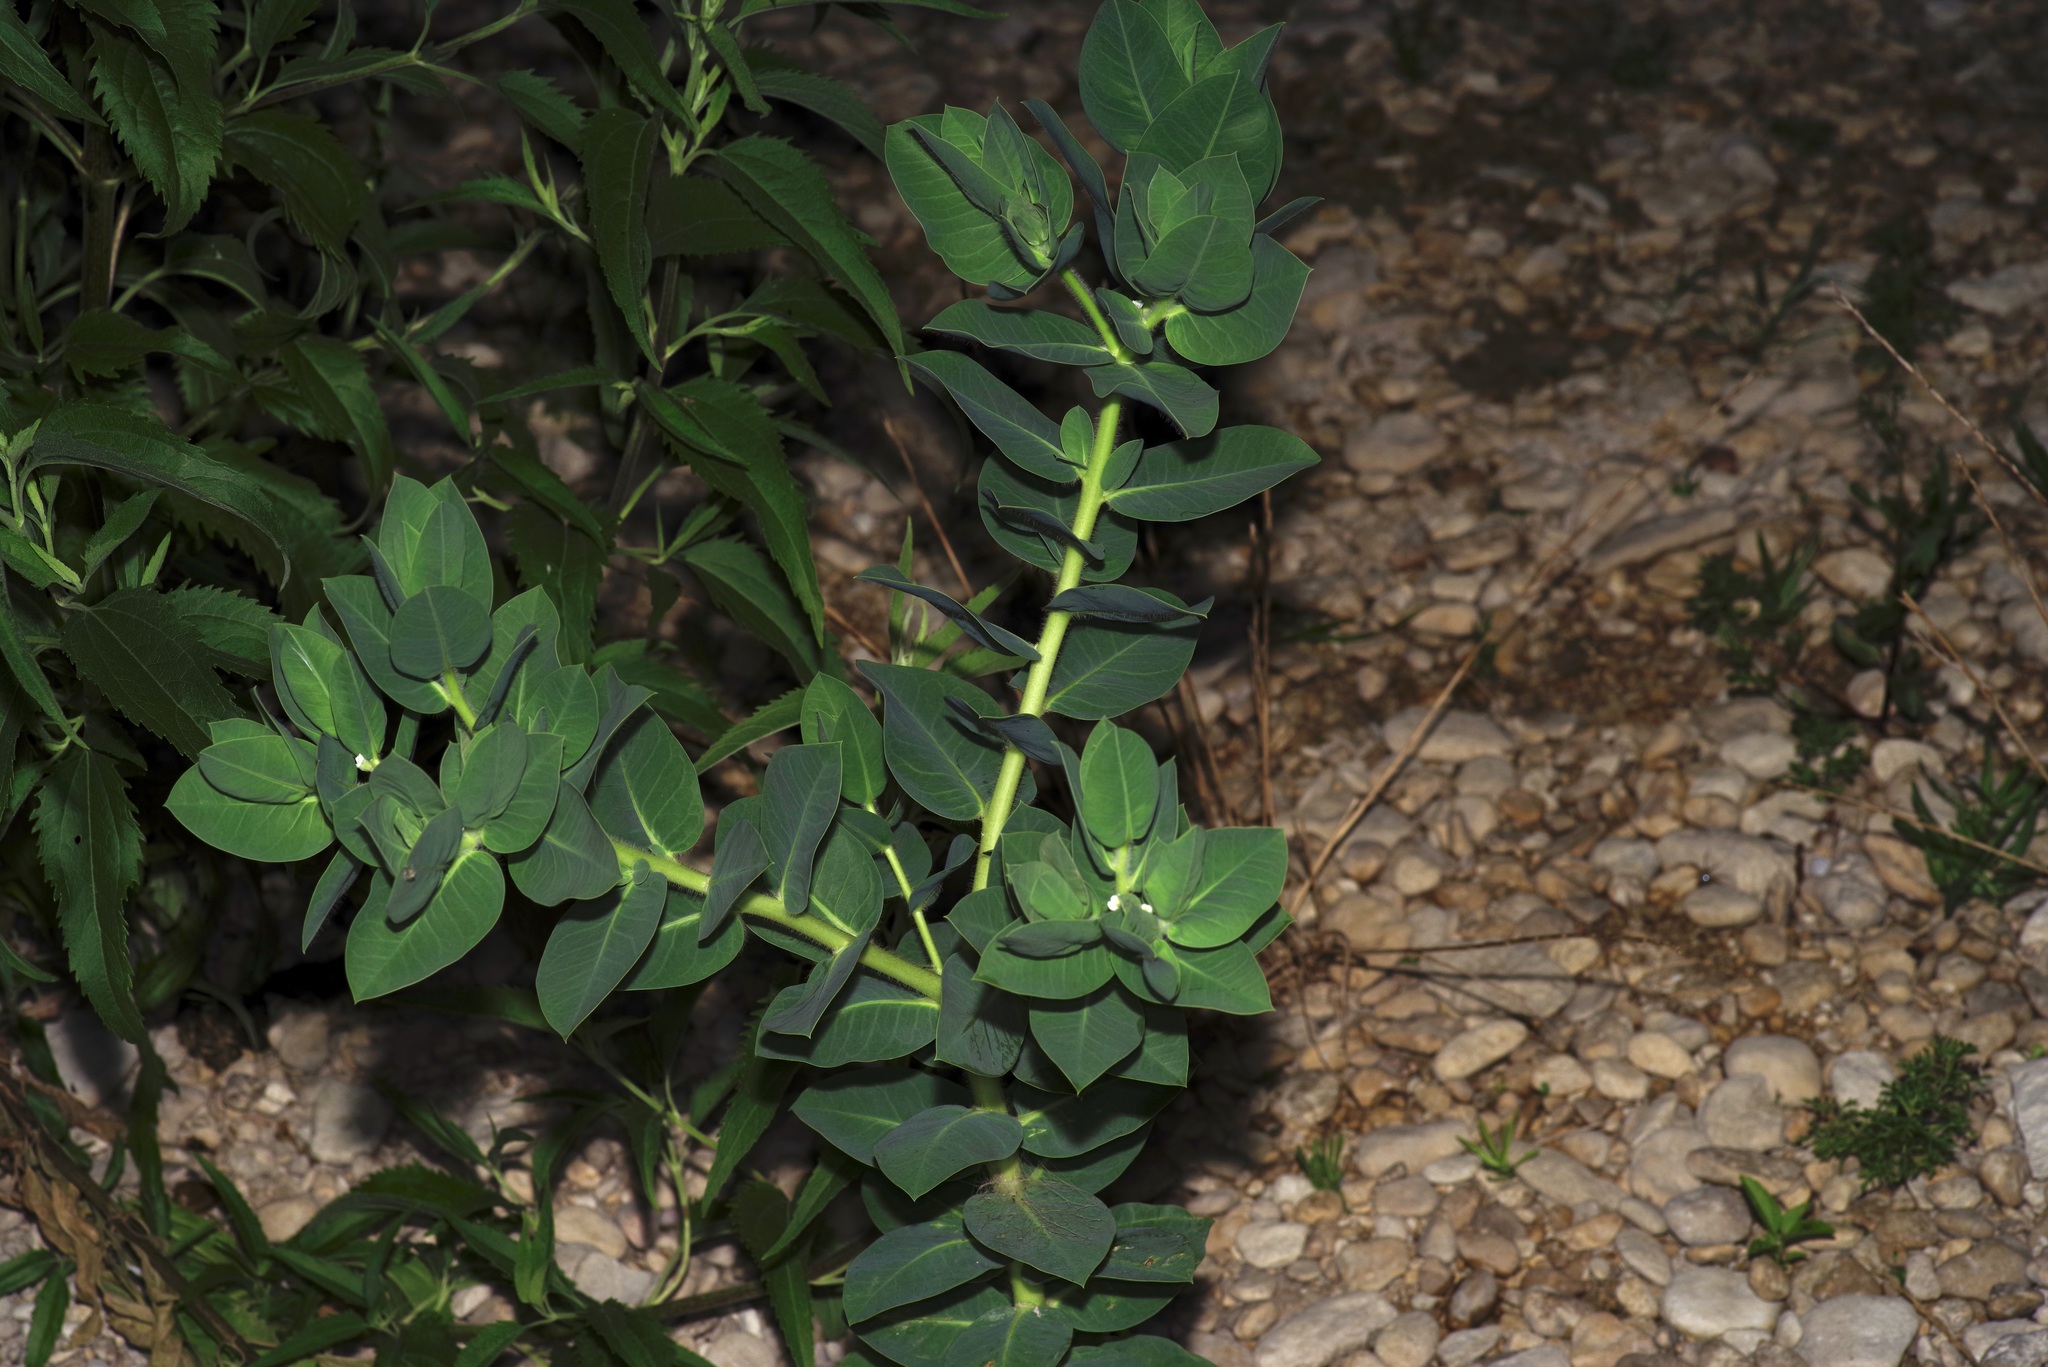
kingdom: Plantae
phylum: Tracheophyta
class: Magnoliopsida
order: Malpighiales
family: Euphorbiaceae
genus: Euphorbia
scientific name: Euphorbia marginata
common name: Ghostweed
